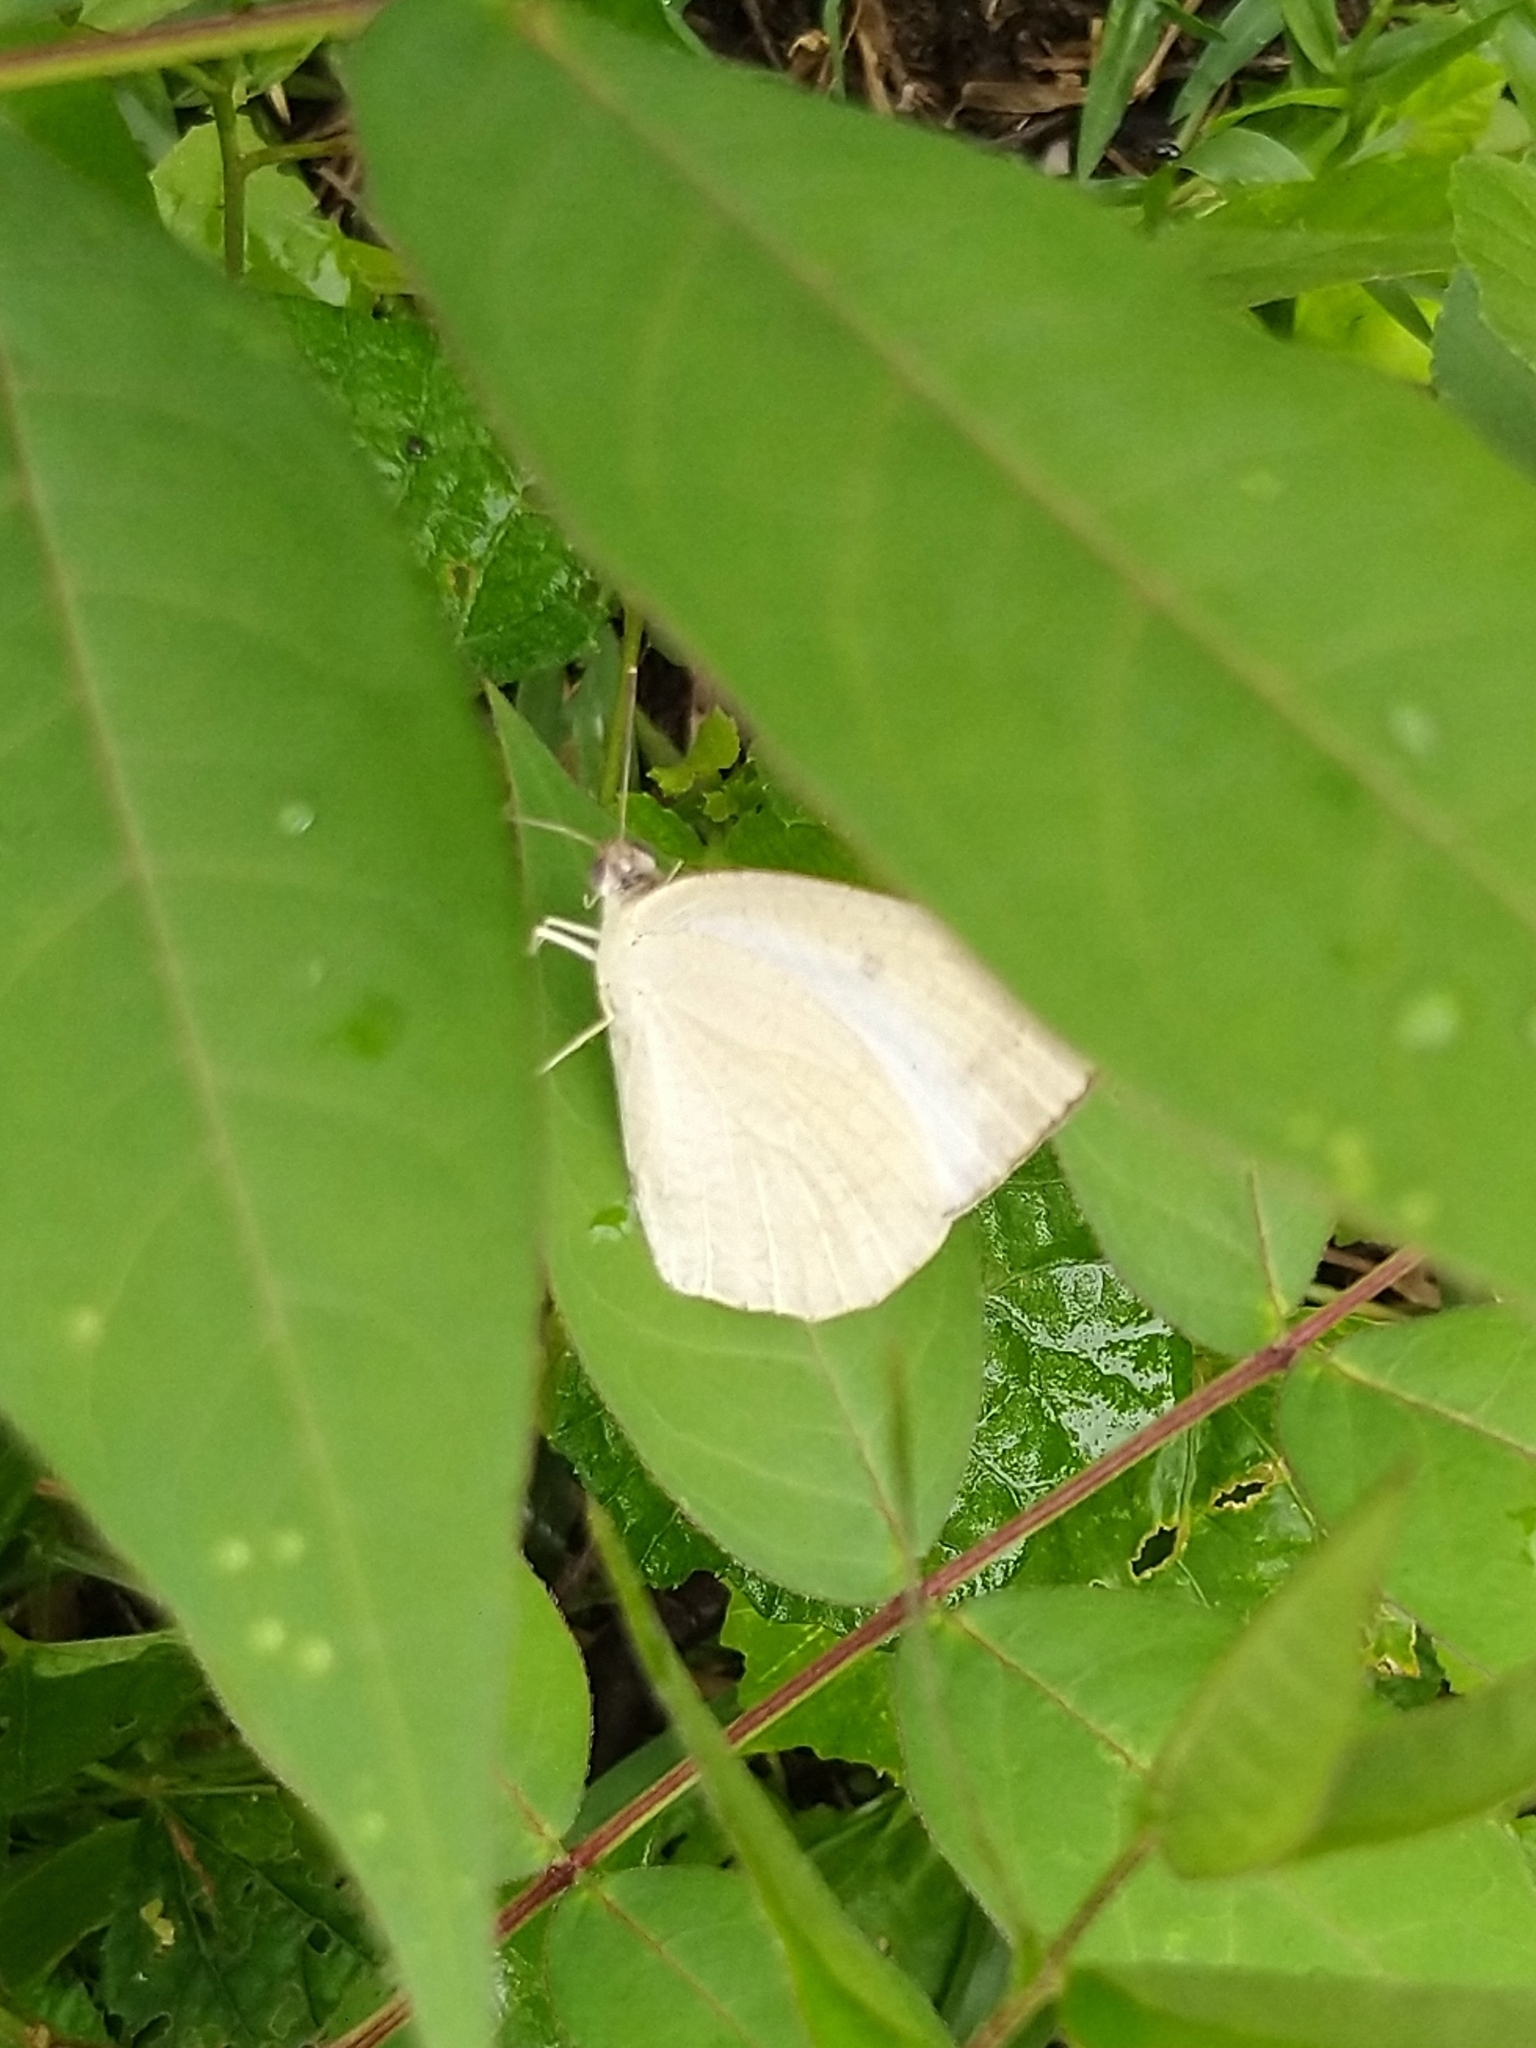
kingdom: Animalia
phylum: Arthropoda
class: Insecta
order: Lepidoptera
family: Pieridae
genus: Catopsilia
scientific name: Catopsilia pyranthe
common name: Mottled emigrant
